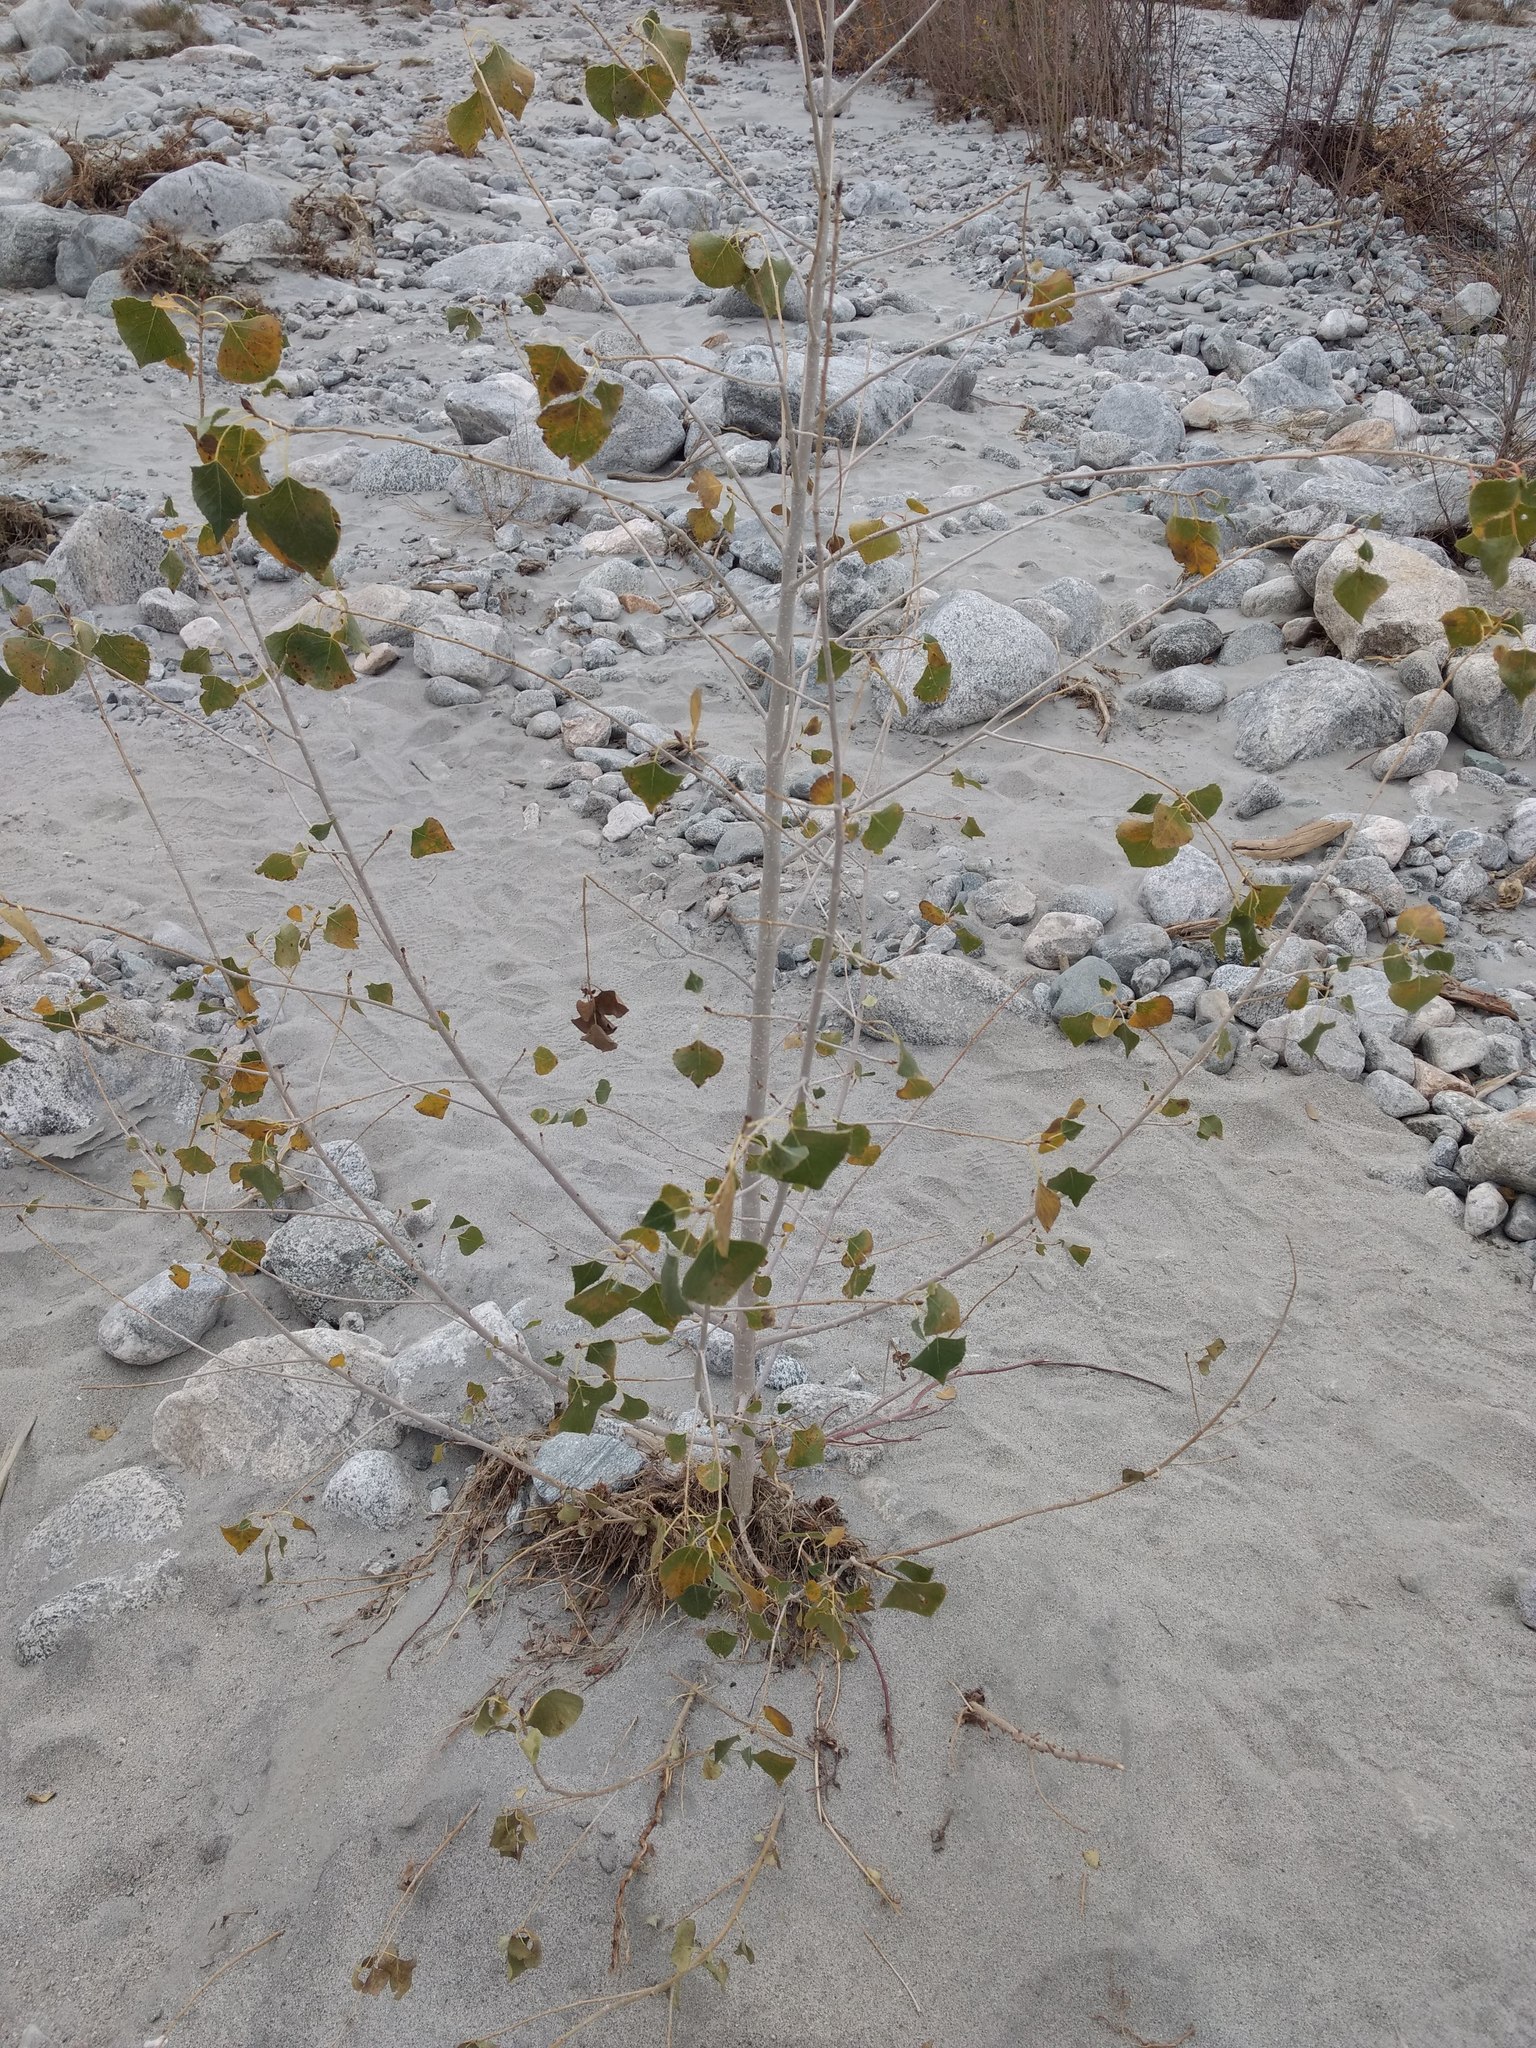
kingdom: Plantae
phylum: Tracheophyta
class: Magnoliopsida
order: Malpighiales
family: Salicaceae
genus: Populus
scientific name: Populus fremontii
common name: Fremont's cottonwood
